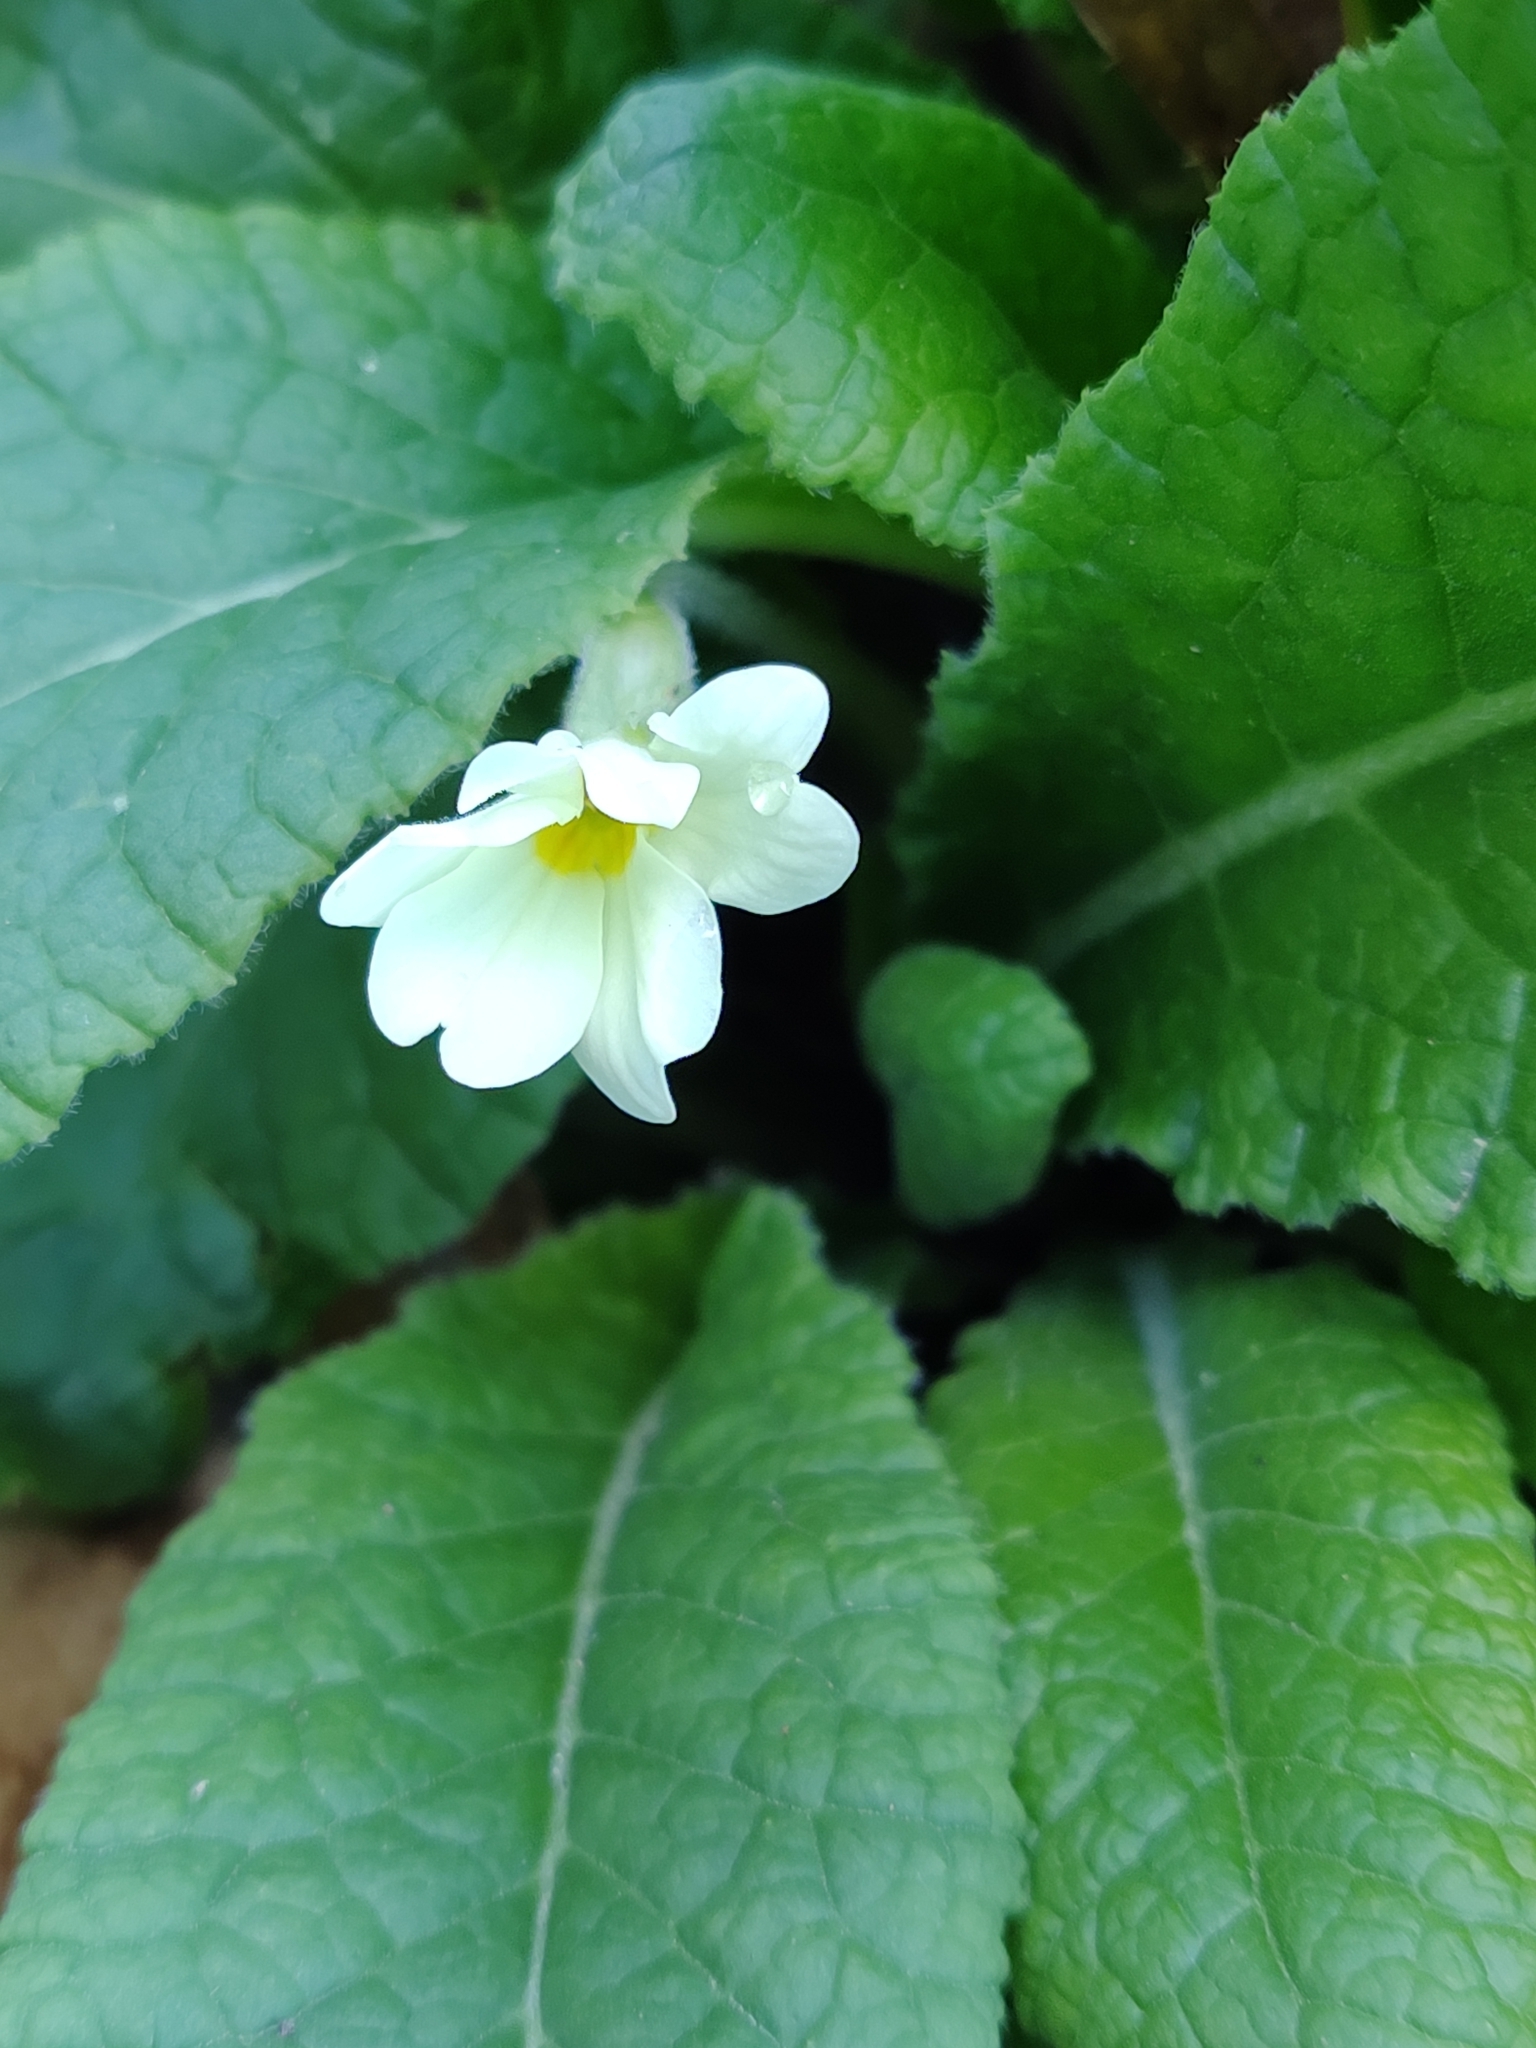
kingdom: Plantae
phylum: Tracheophyta
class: Magnoliopsida
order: Ericales
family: Primulaceae
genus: Primula
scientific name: Primula vulgaris
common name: Primrose
